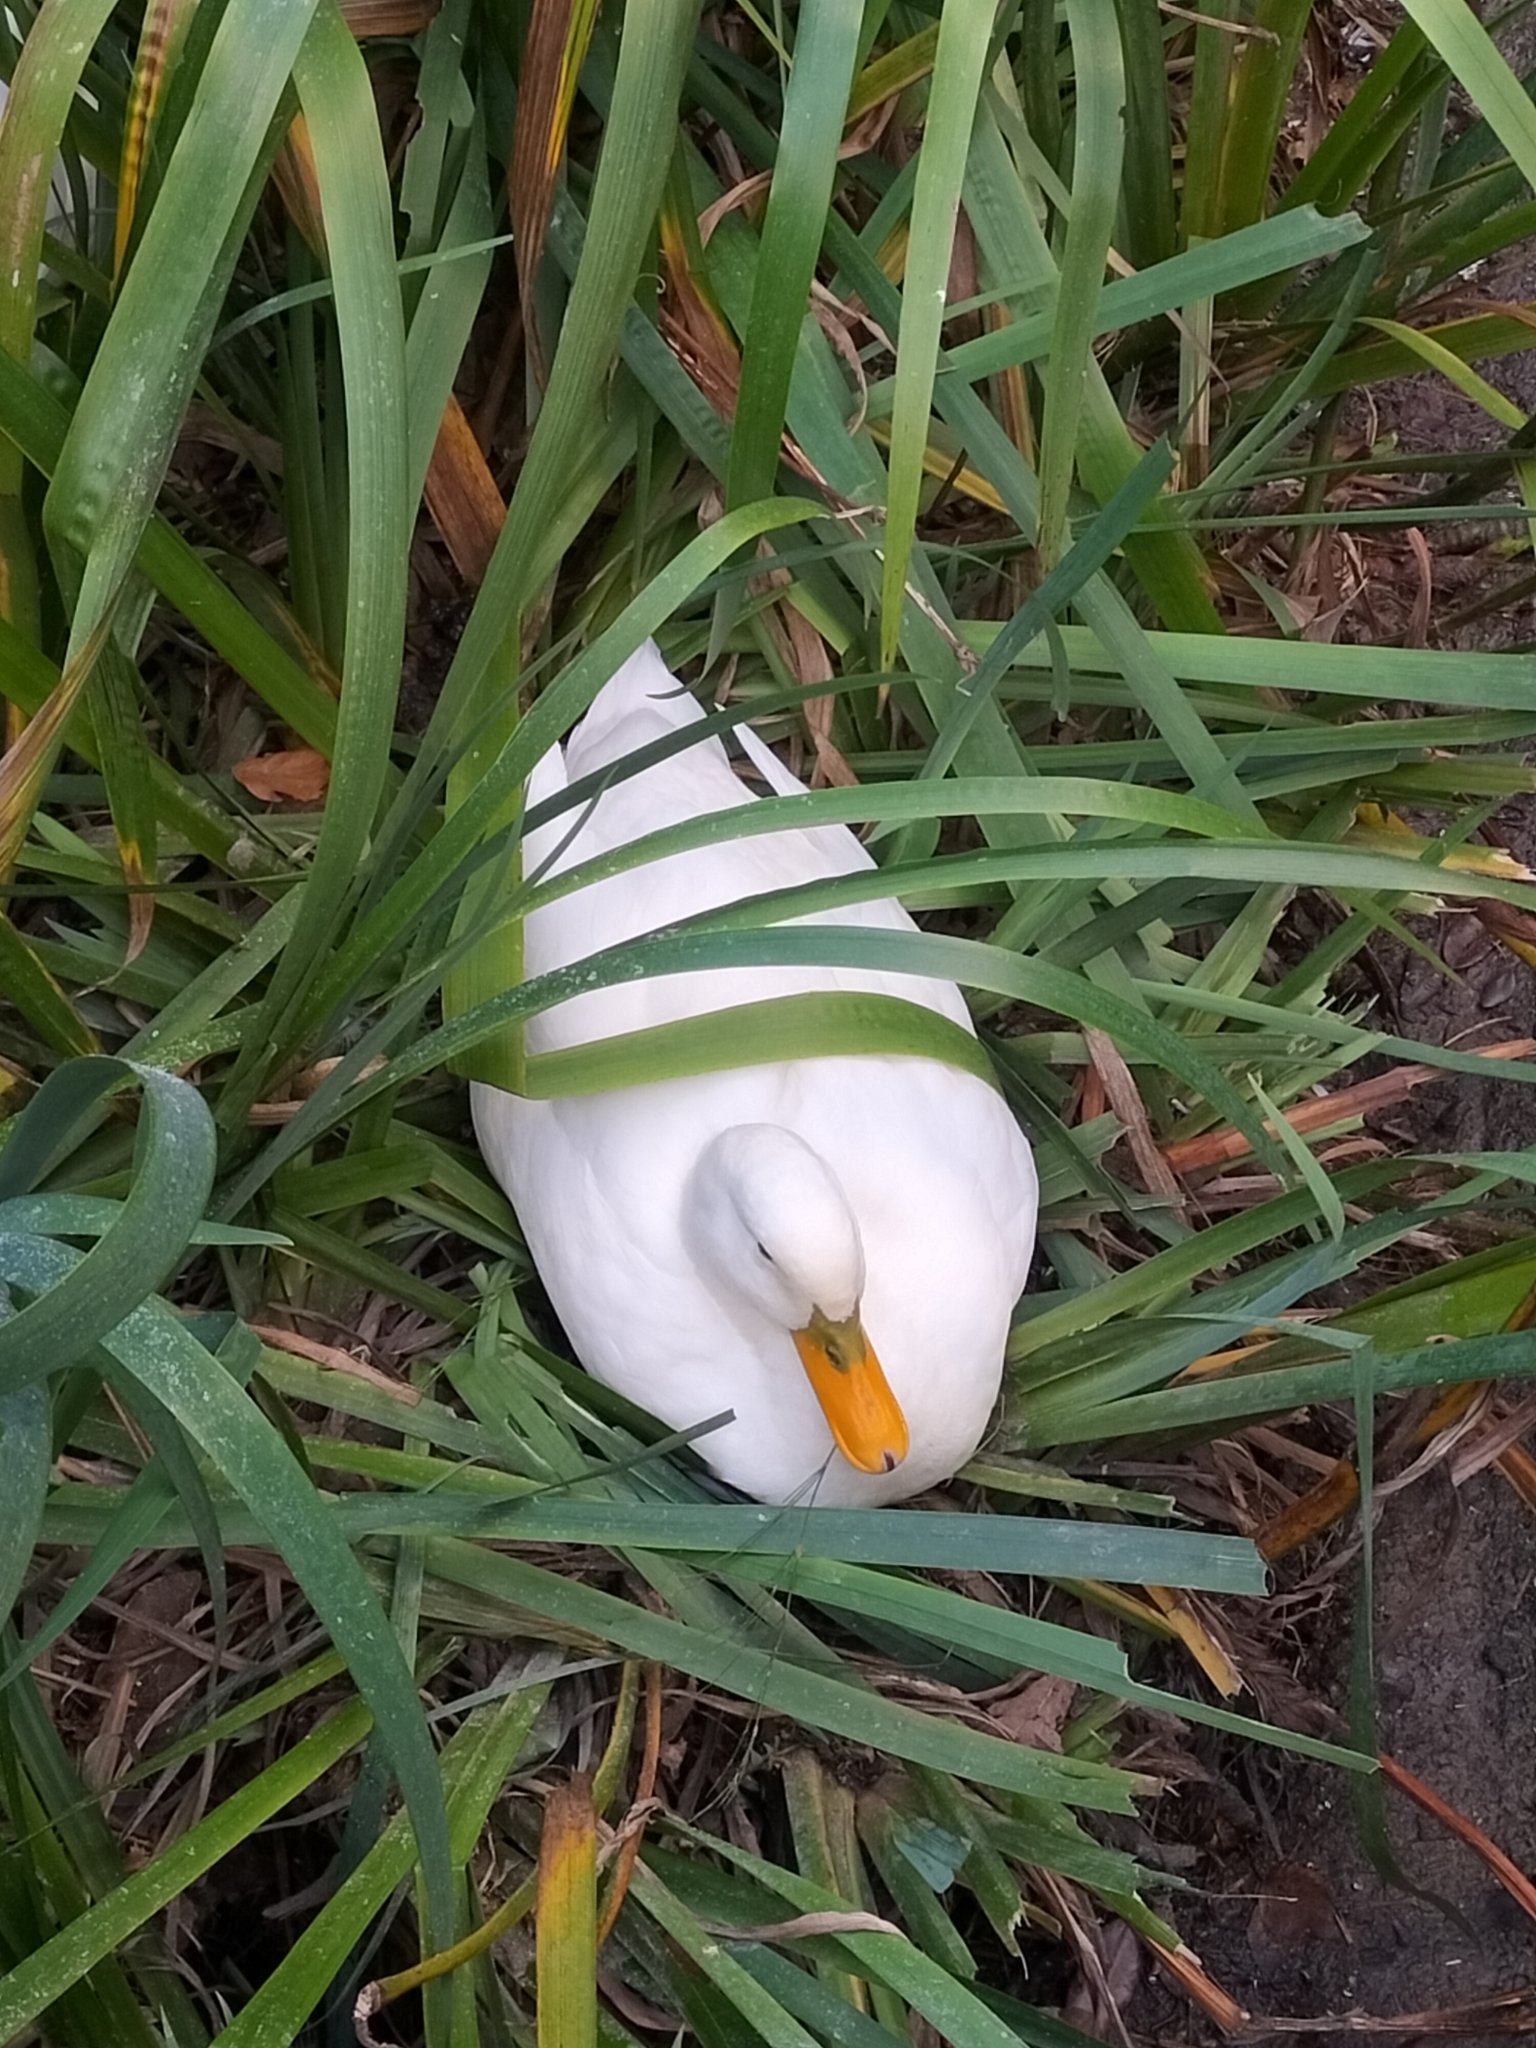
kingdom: Animalia
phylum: Chordata
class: Aves
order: Anseriformes
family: Anatidae
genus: Anas
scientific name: Anas platyrhynchos
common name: Mallard
